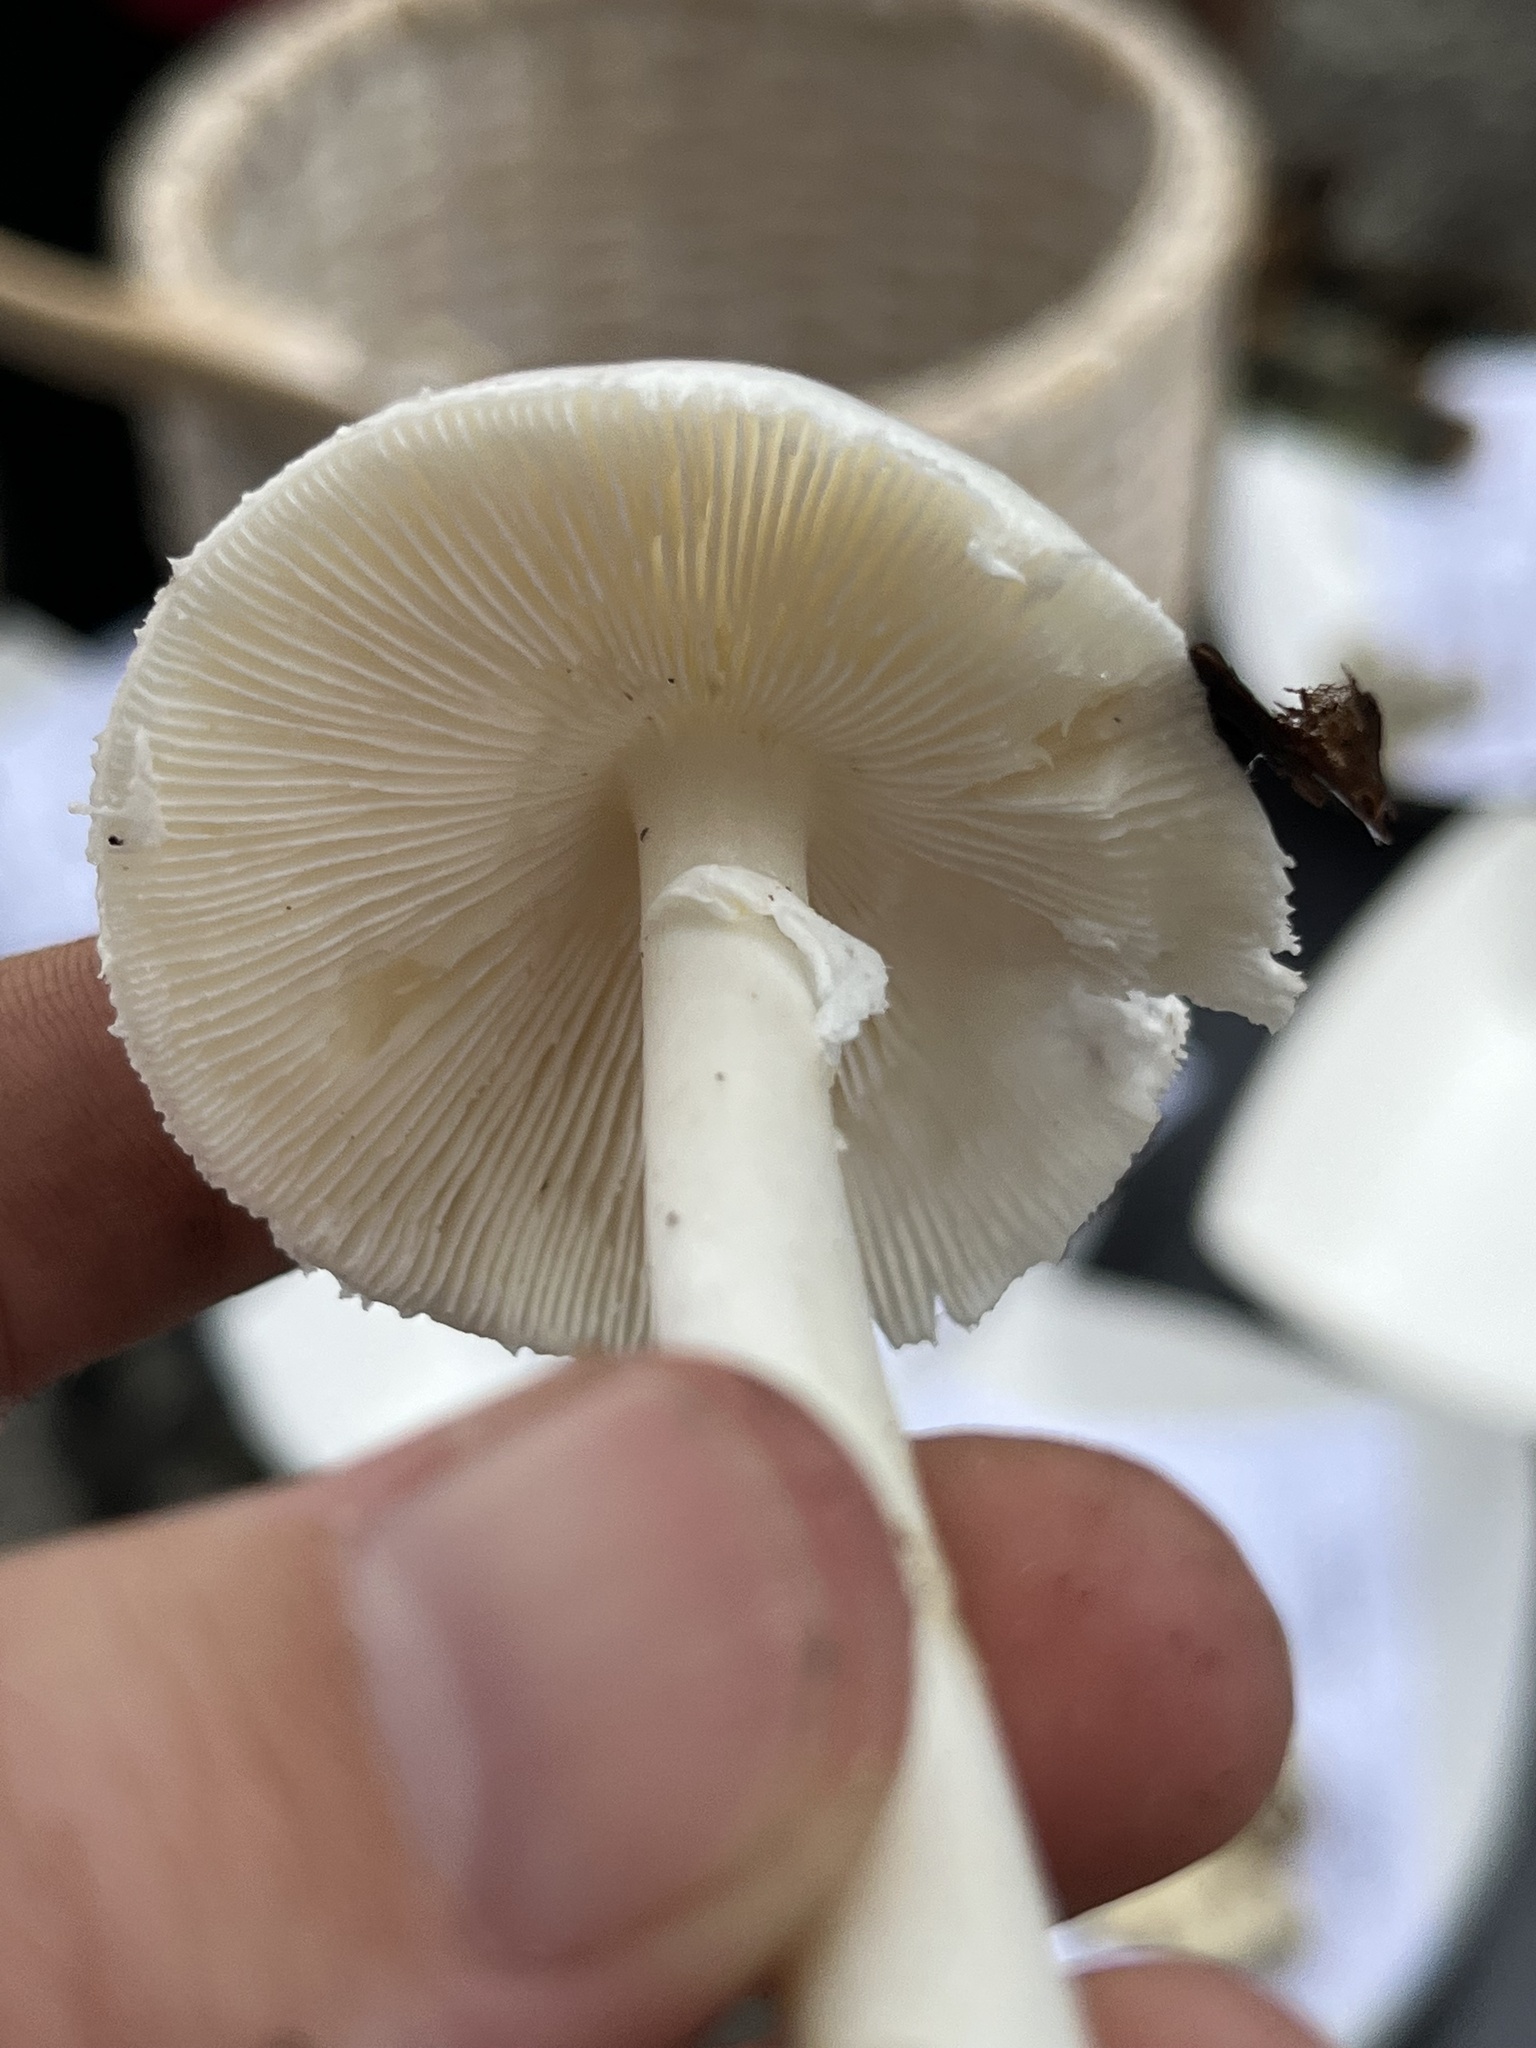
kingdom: Fungi
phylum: Basidiomycota
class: Agaricomycetes
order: Agaricales
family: Amanitaceae
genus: Amanita
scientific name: Amanita bisporigera
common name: Eastern north american destroying angel
